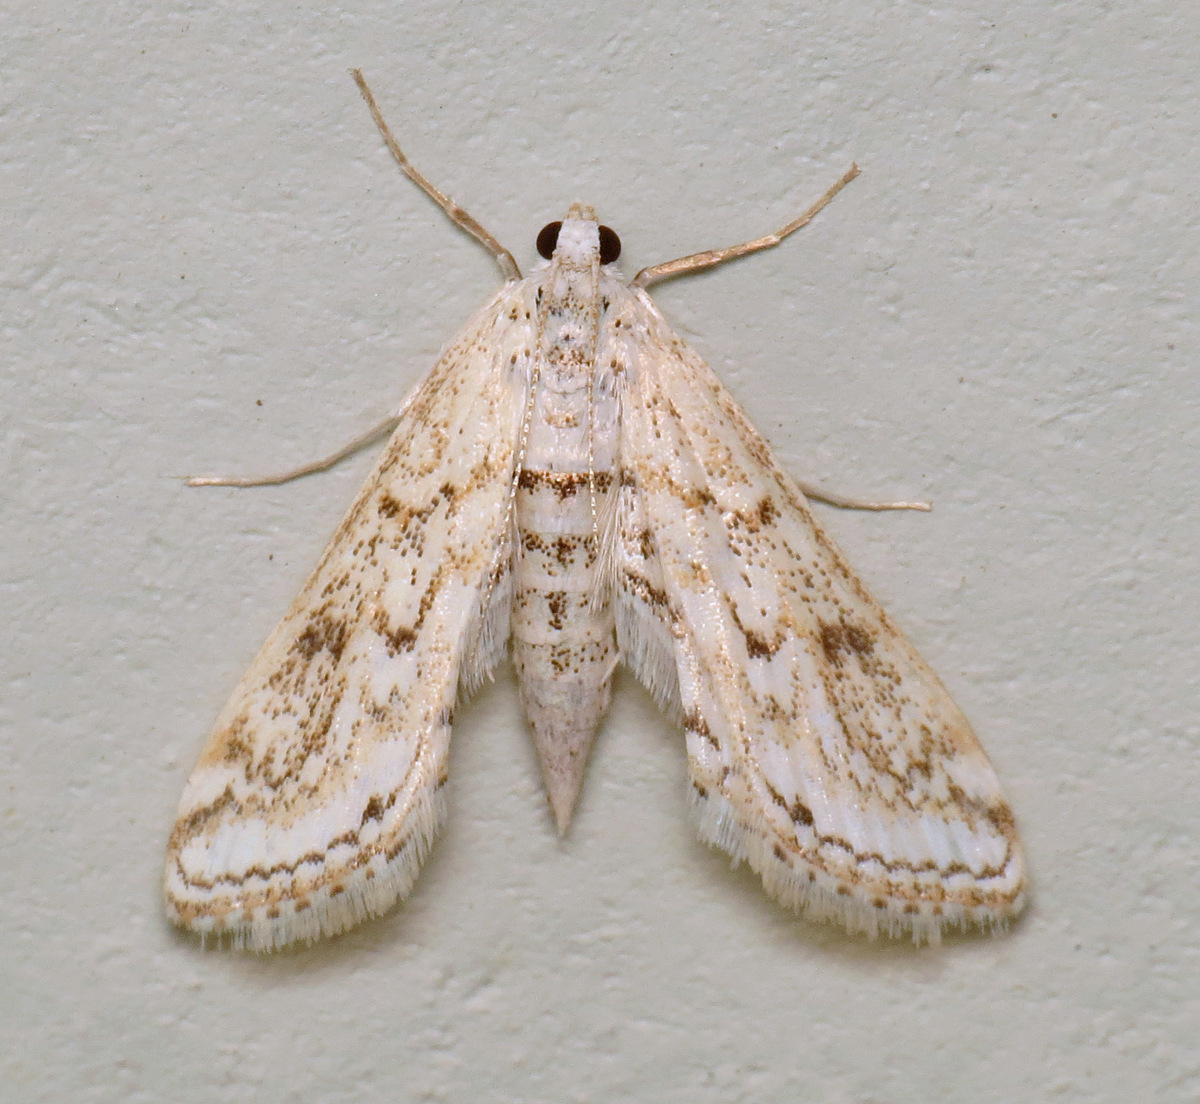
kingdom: Animalia
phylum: Arthropoda
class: Insecta
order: Lepidoptera
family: Crambidae
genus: Parapoynx
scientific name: Parapoynx allionealis
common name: Bladderwort casemaker
